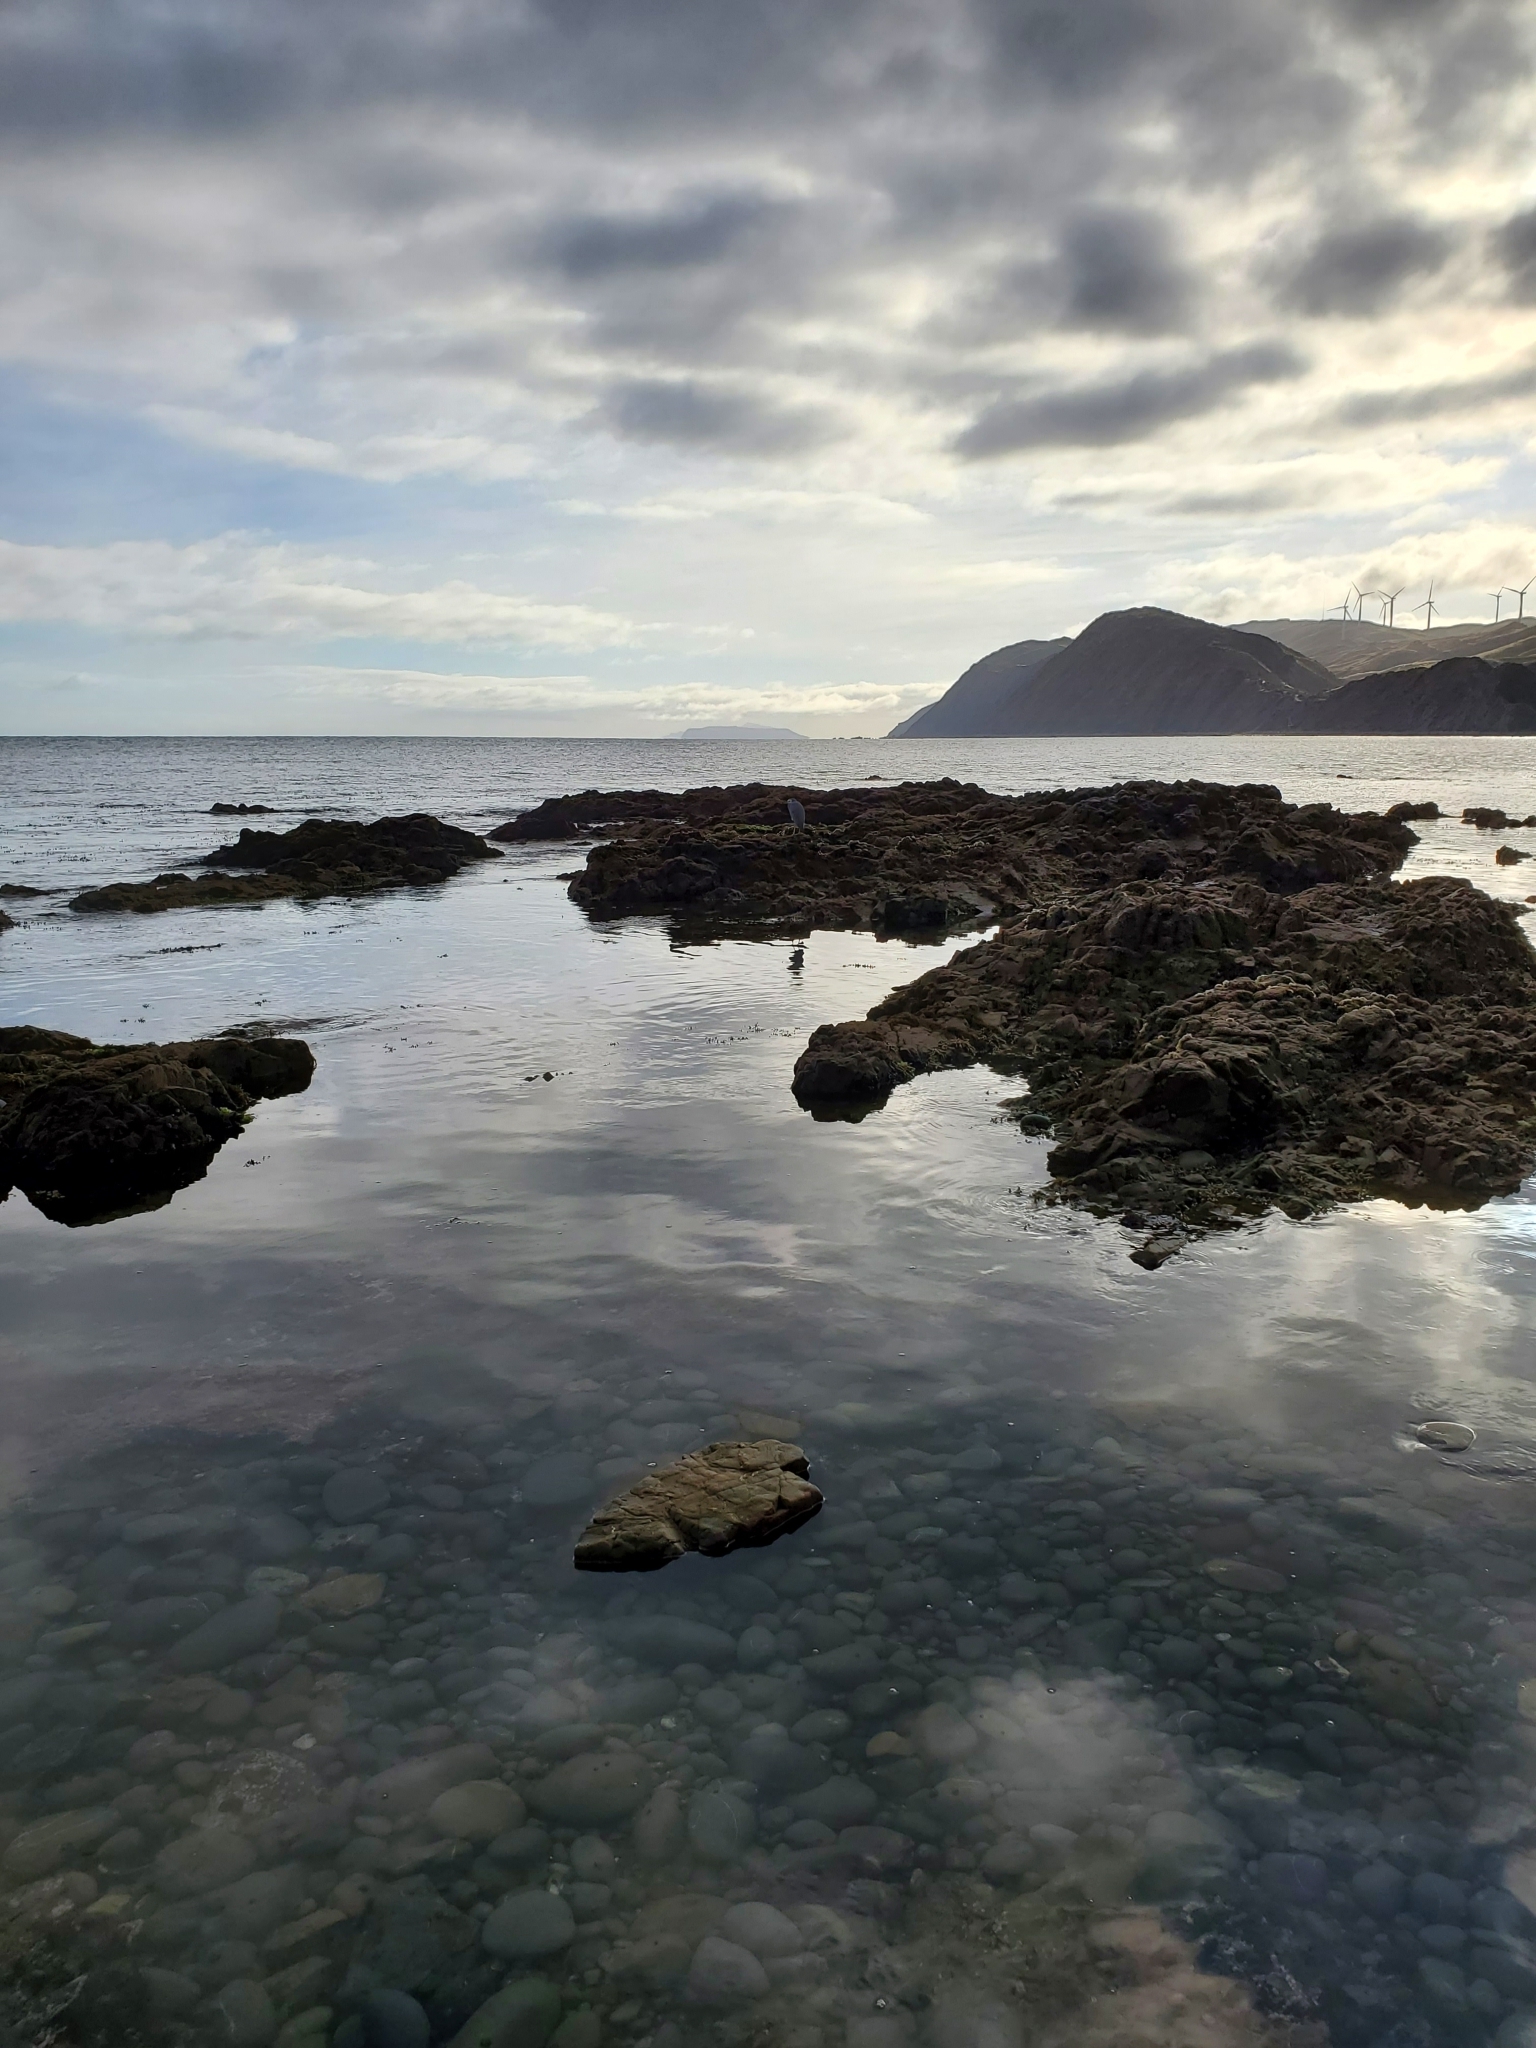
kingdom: Animalia
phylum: Chordata
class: Aves
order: Pelecaniformes
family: Ardeidae
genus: Egretta
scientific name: Egretta novaehollandiae
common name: White-faced heron
